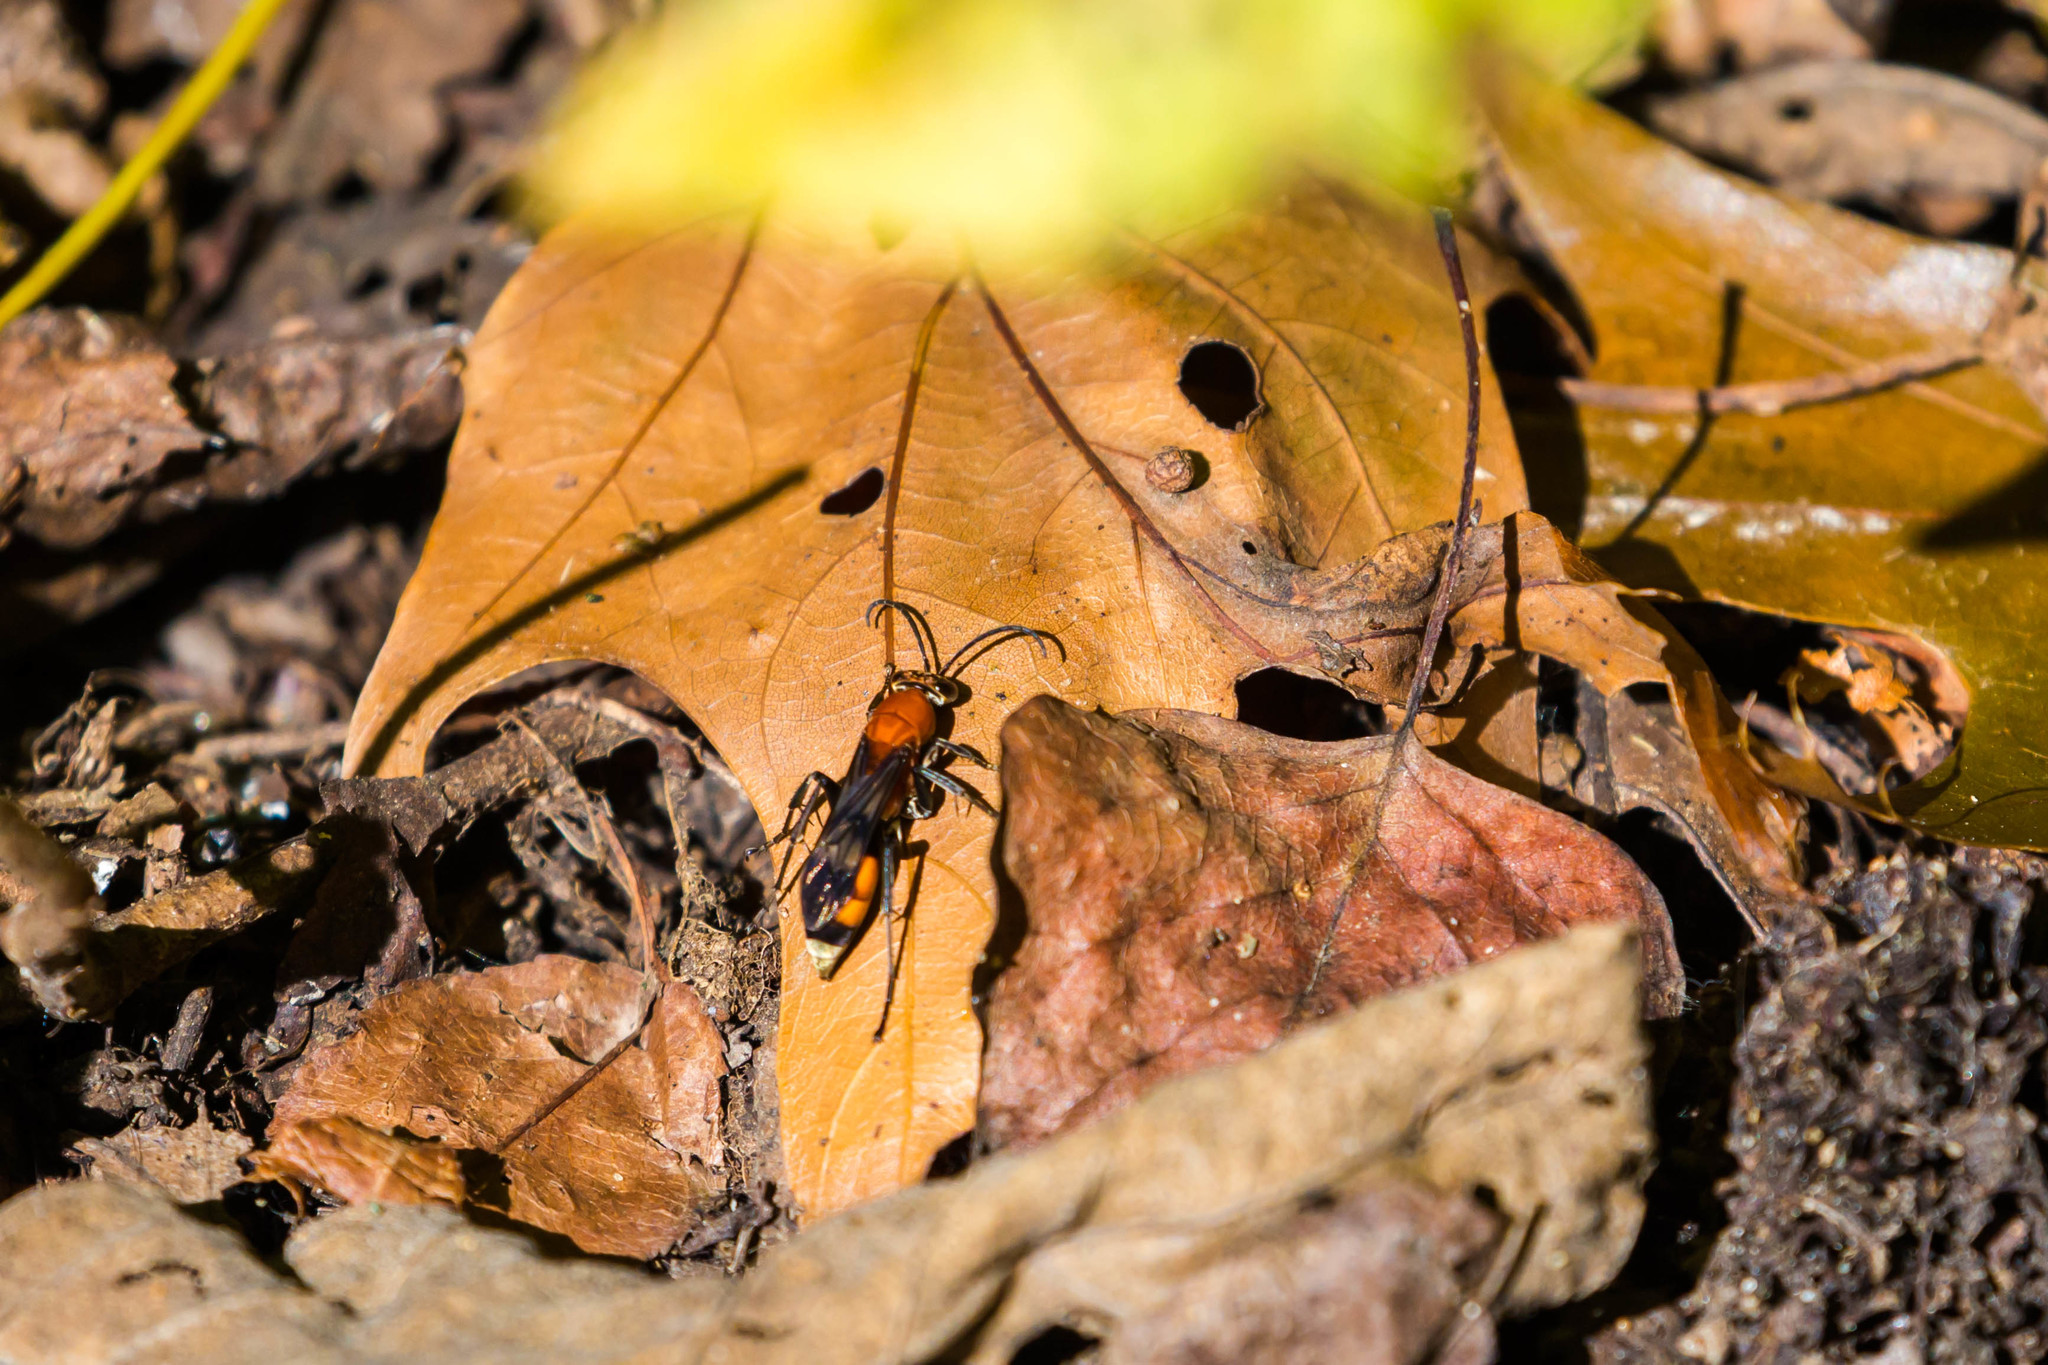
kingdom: Animalia
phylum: Arthropoda
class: Insecta
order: Hymenoptera
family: Pompilidae
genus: Psorthaspis
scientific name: Psorthaspis mariae
